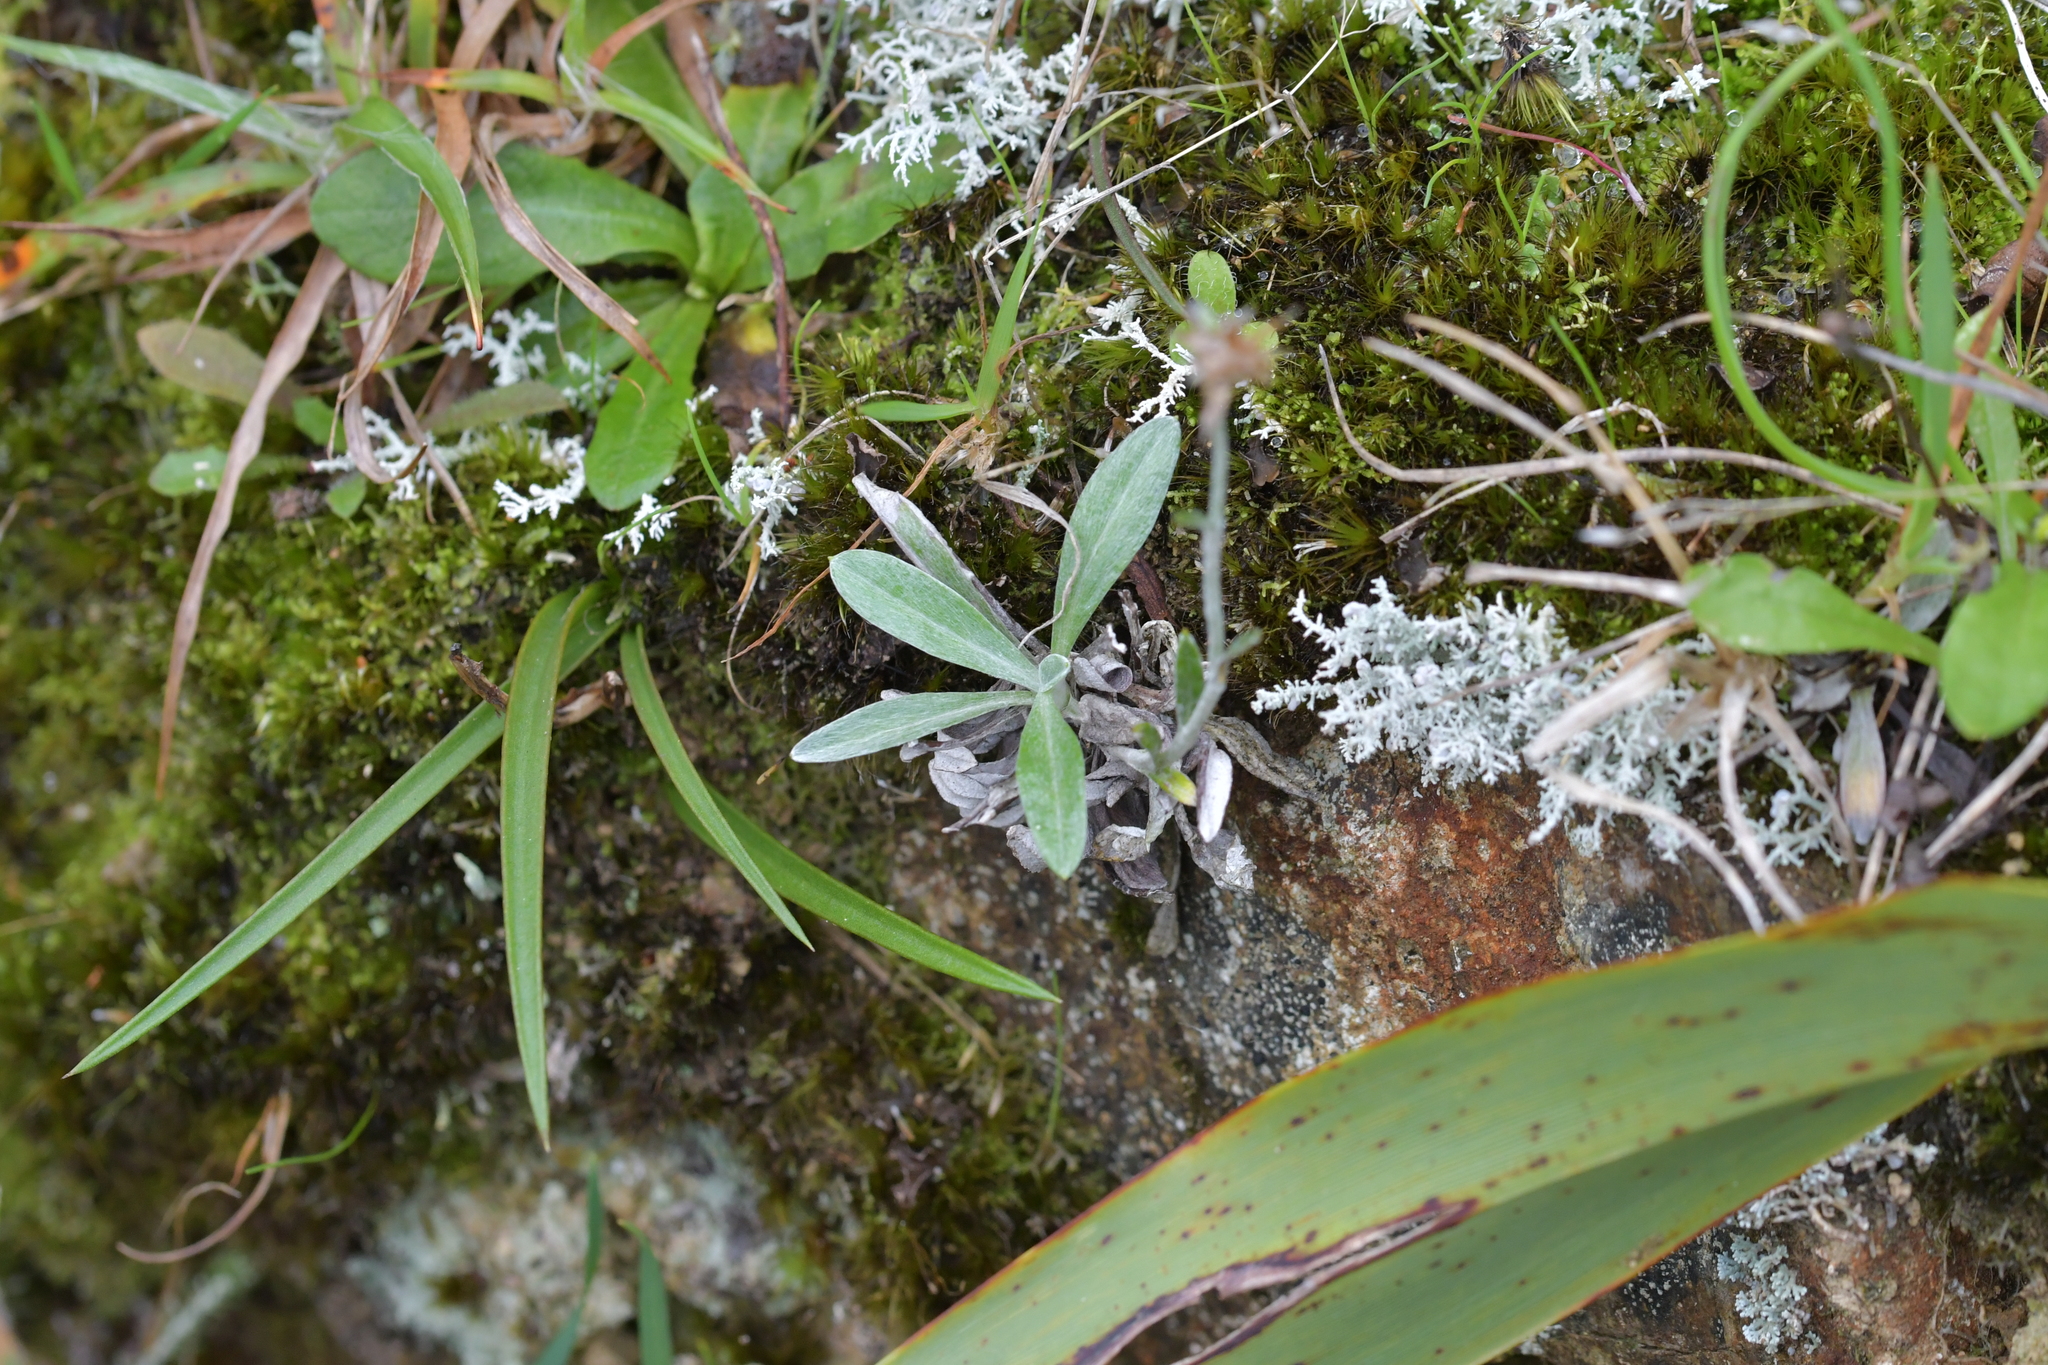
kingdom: Plantae
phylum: Tracheophyta
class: Magnoliopsida
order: Asterales
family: Asteraceae
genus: Euchiton
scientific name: Euchiton audax
